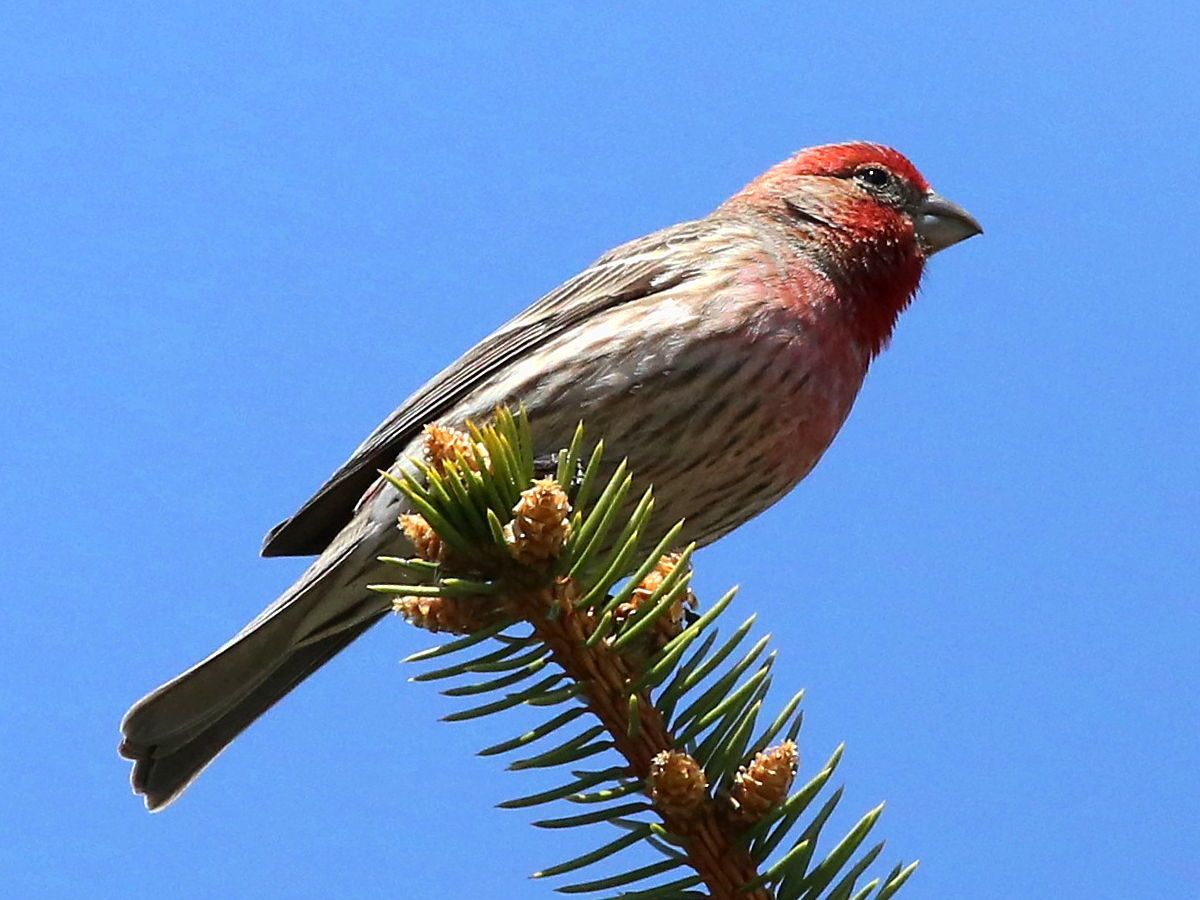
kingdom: Animalia
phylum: Chordata
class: Aves
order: Passeriformes
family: Fringillidae
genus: Haemorhous
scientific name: Haemorhous mexicanus
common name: House finch
